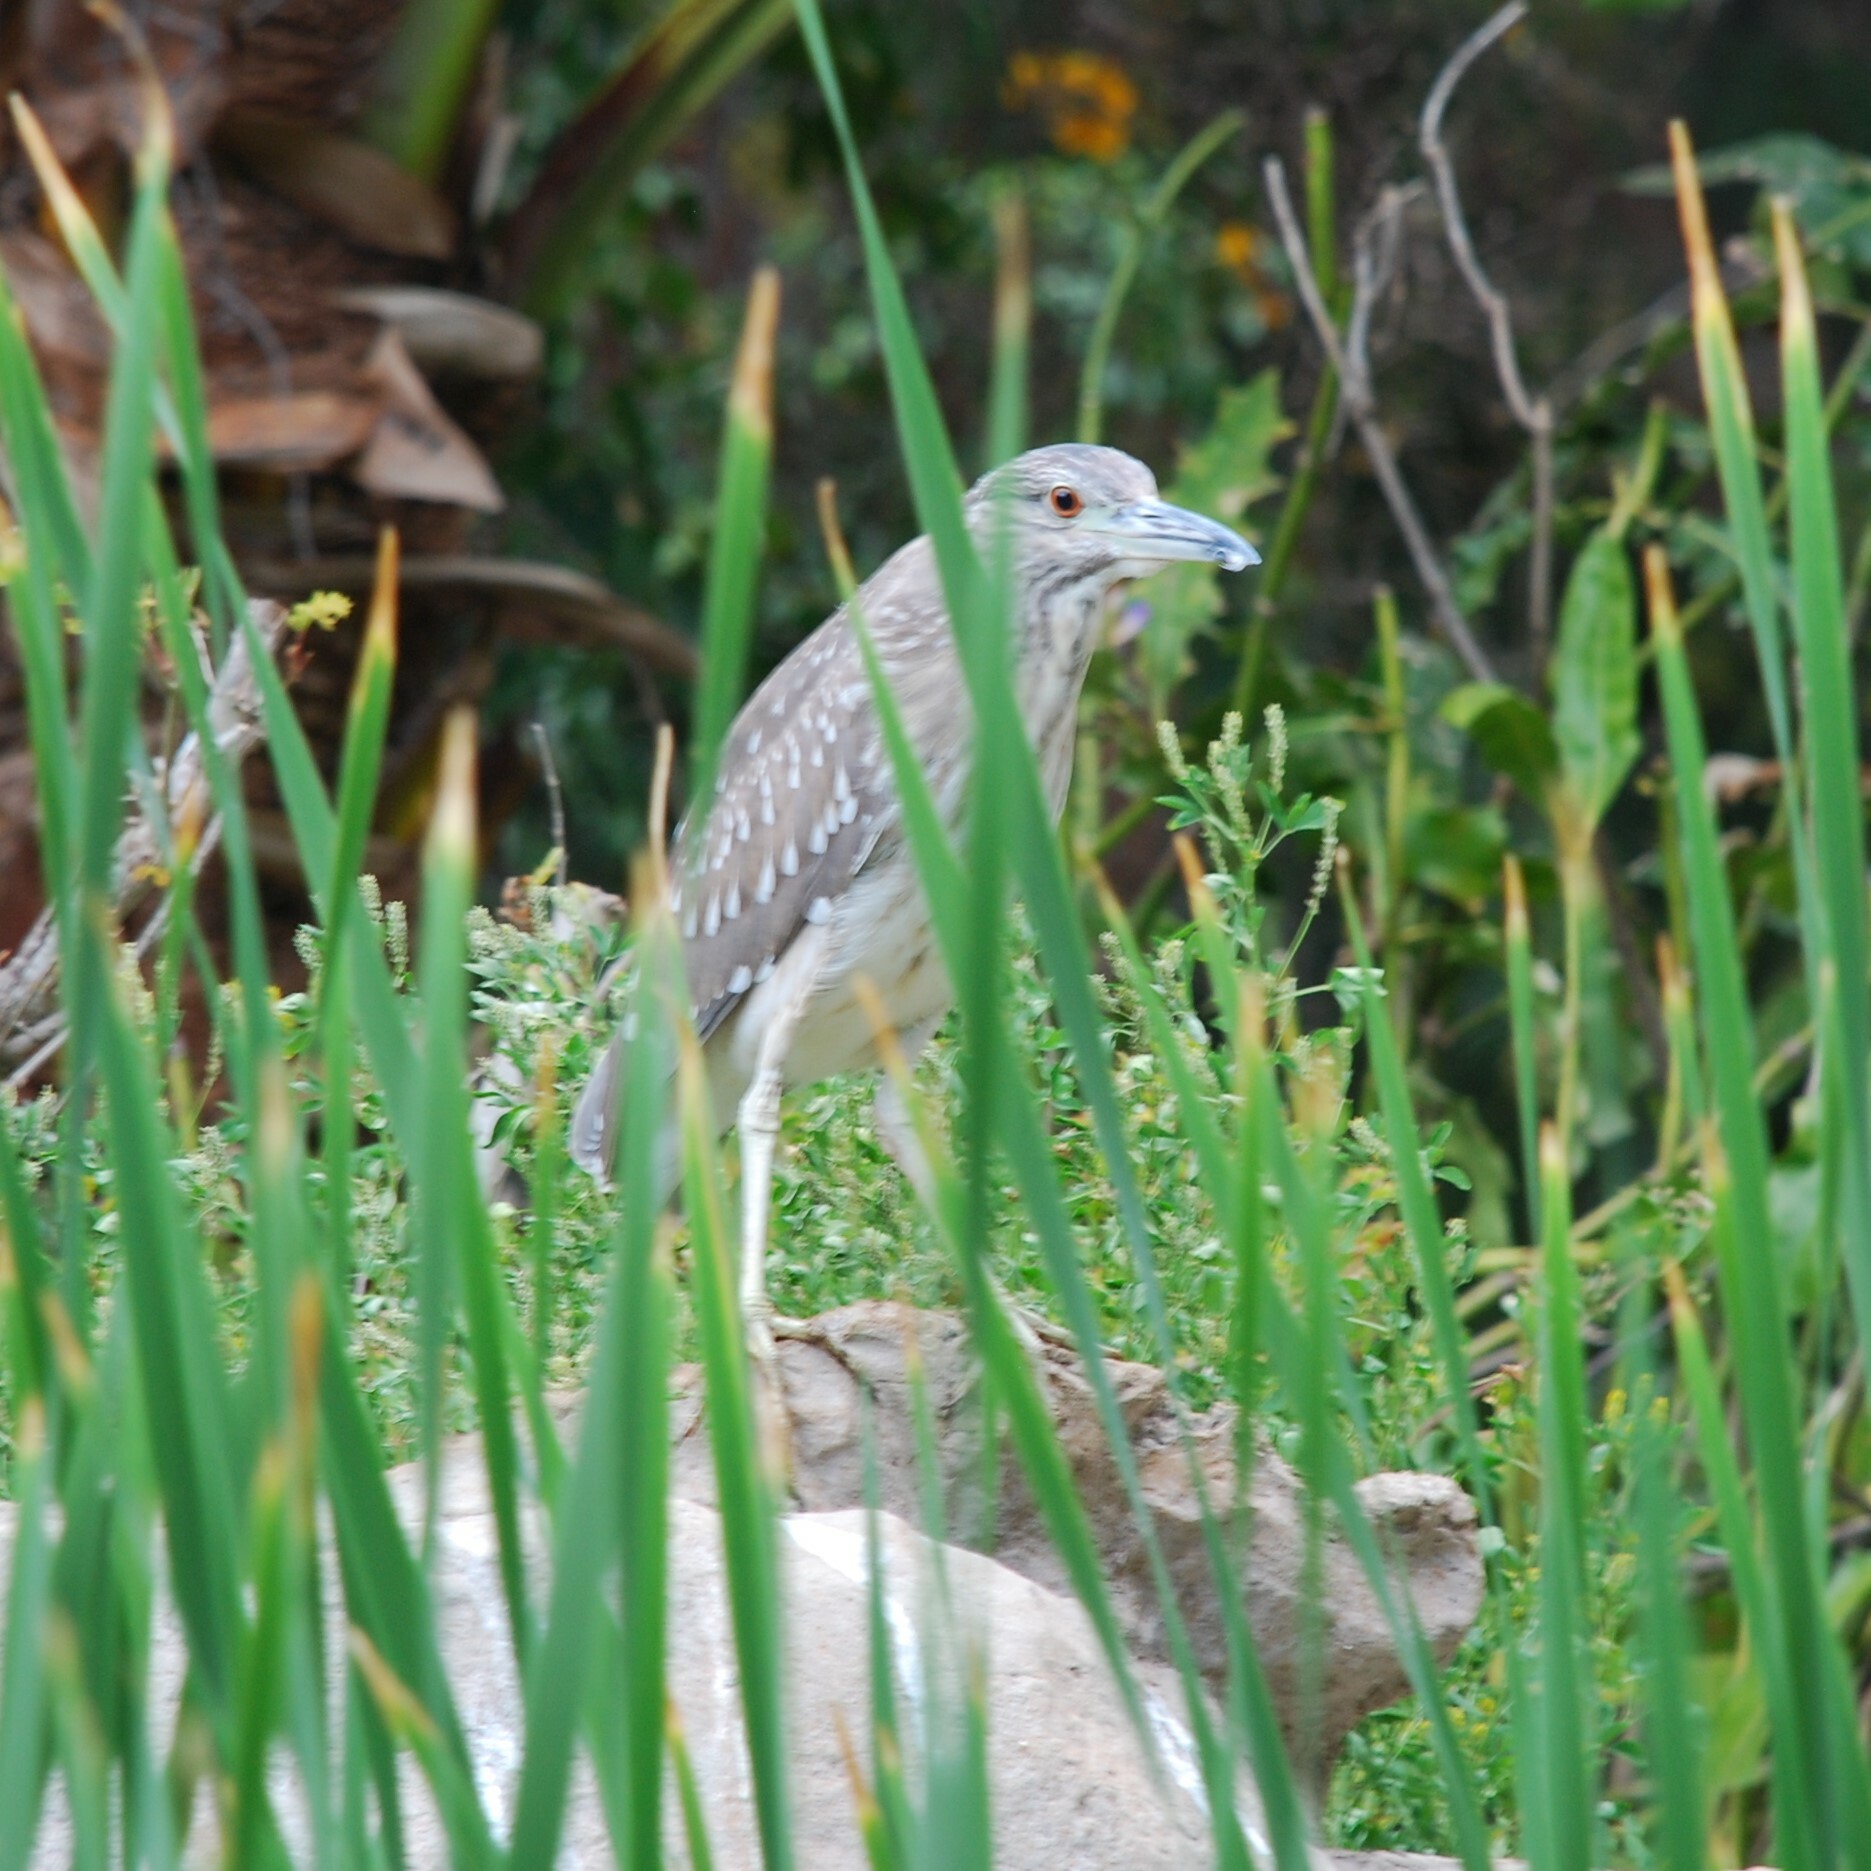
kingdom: Animalia
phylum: Chordata
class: Aves
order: Pelecaniformes
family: Ardeidae
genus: Nycticorax
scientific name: Nycticorax nycticorax
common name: Black-crowned night heron
